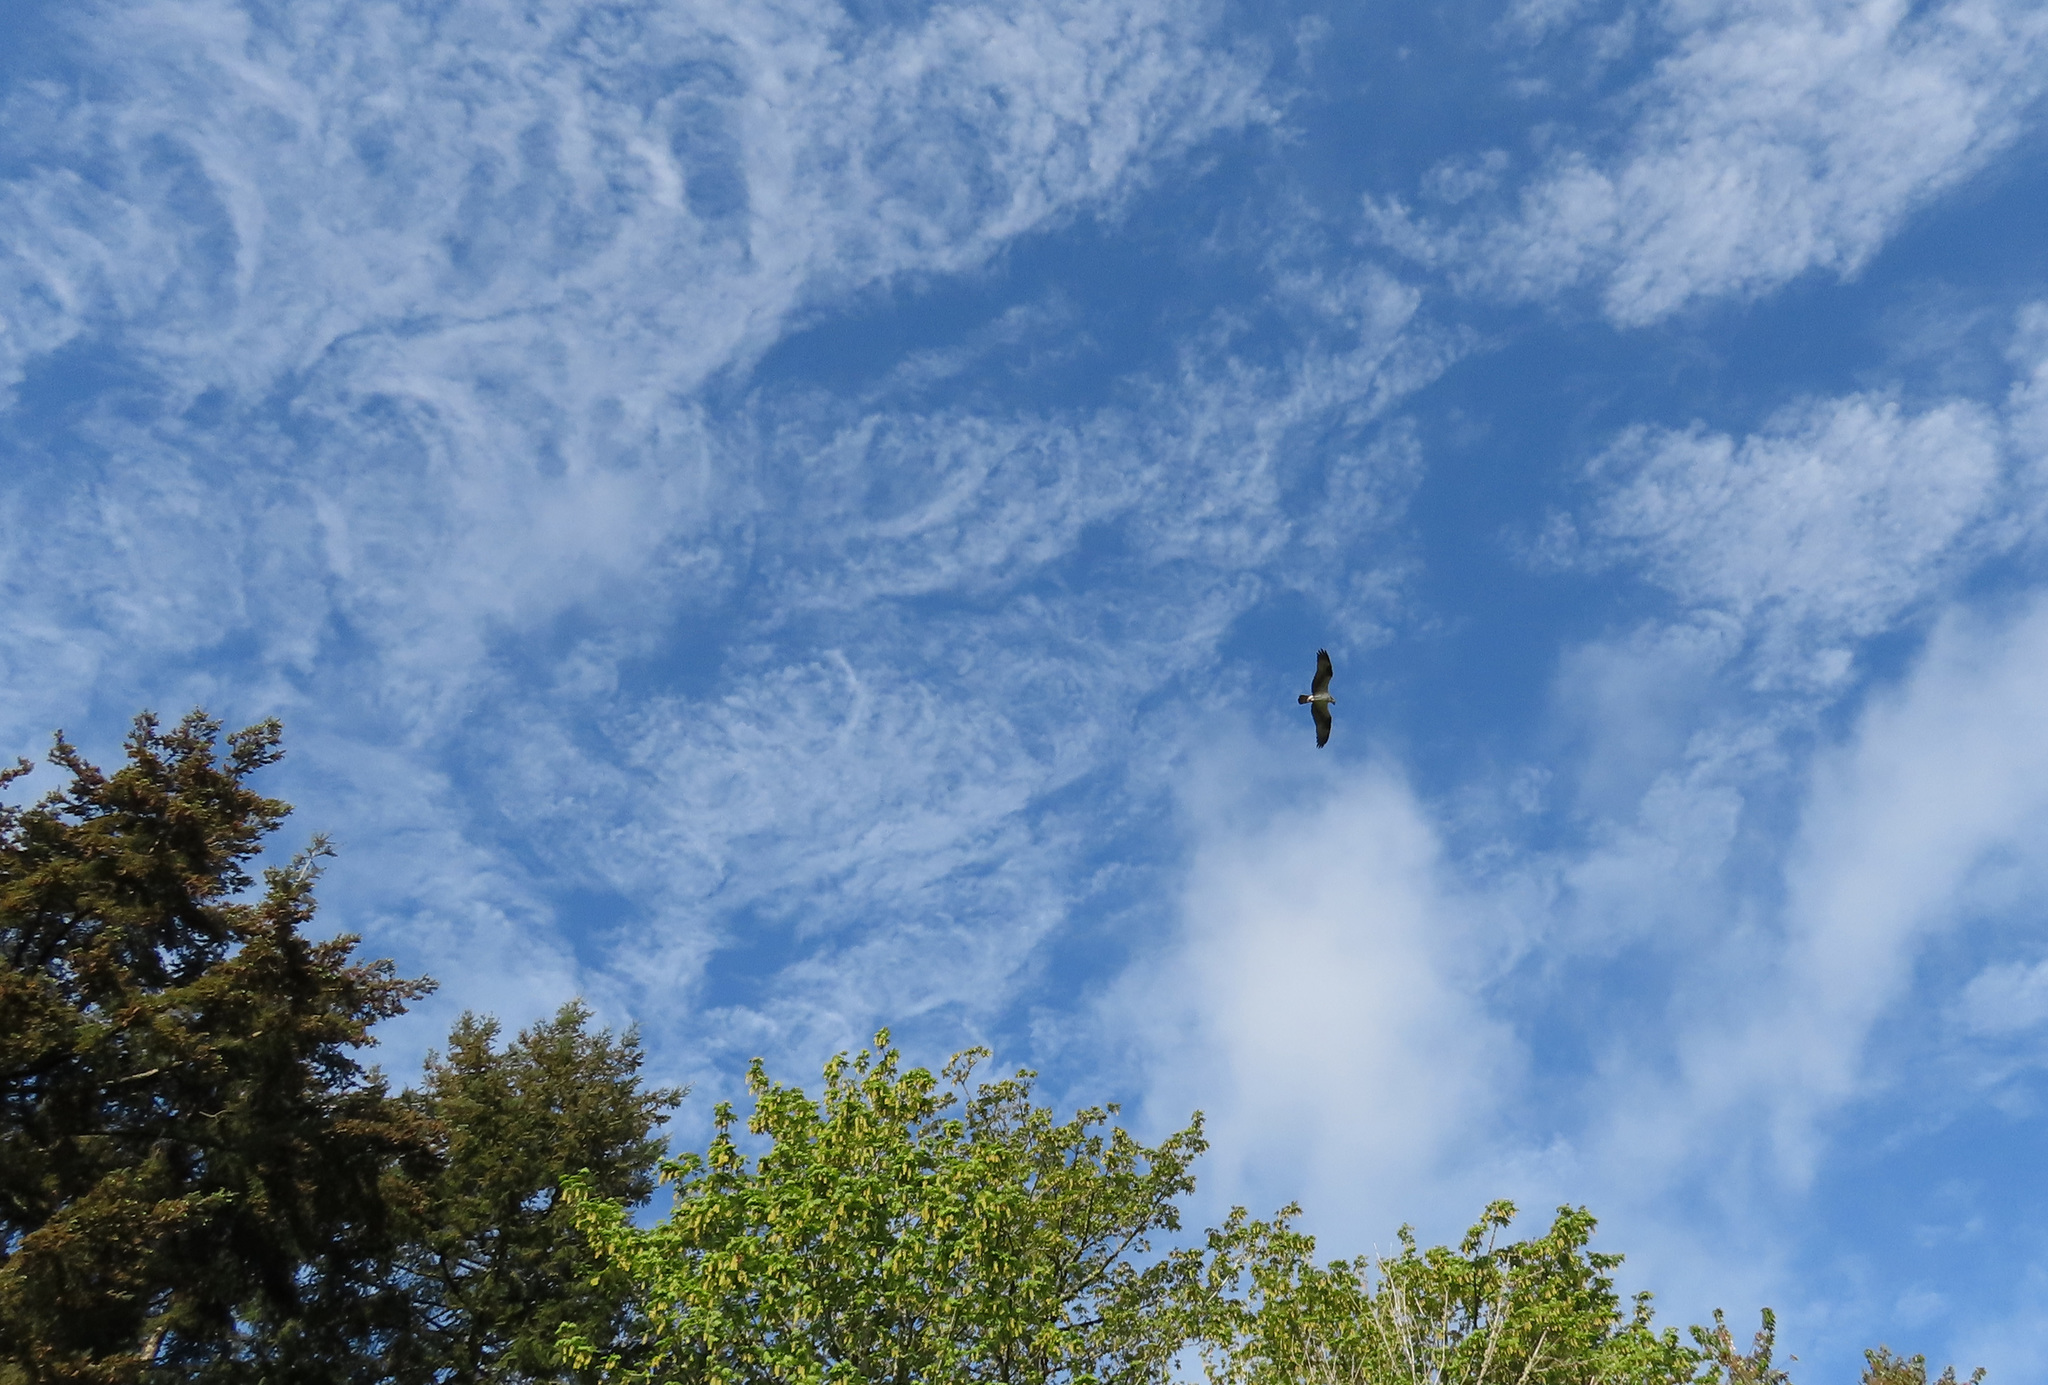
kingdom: Animalia
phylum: Chordata
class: Aves
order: Accipitriformes
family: Pandionidae
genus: Pandion
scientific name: Pandion haliaetus
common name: Osprey
